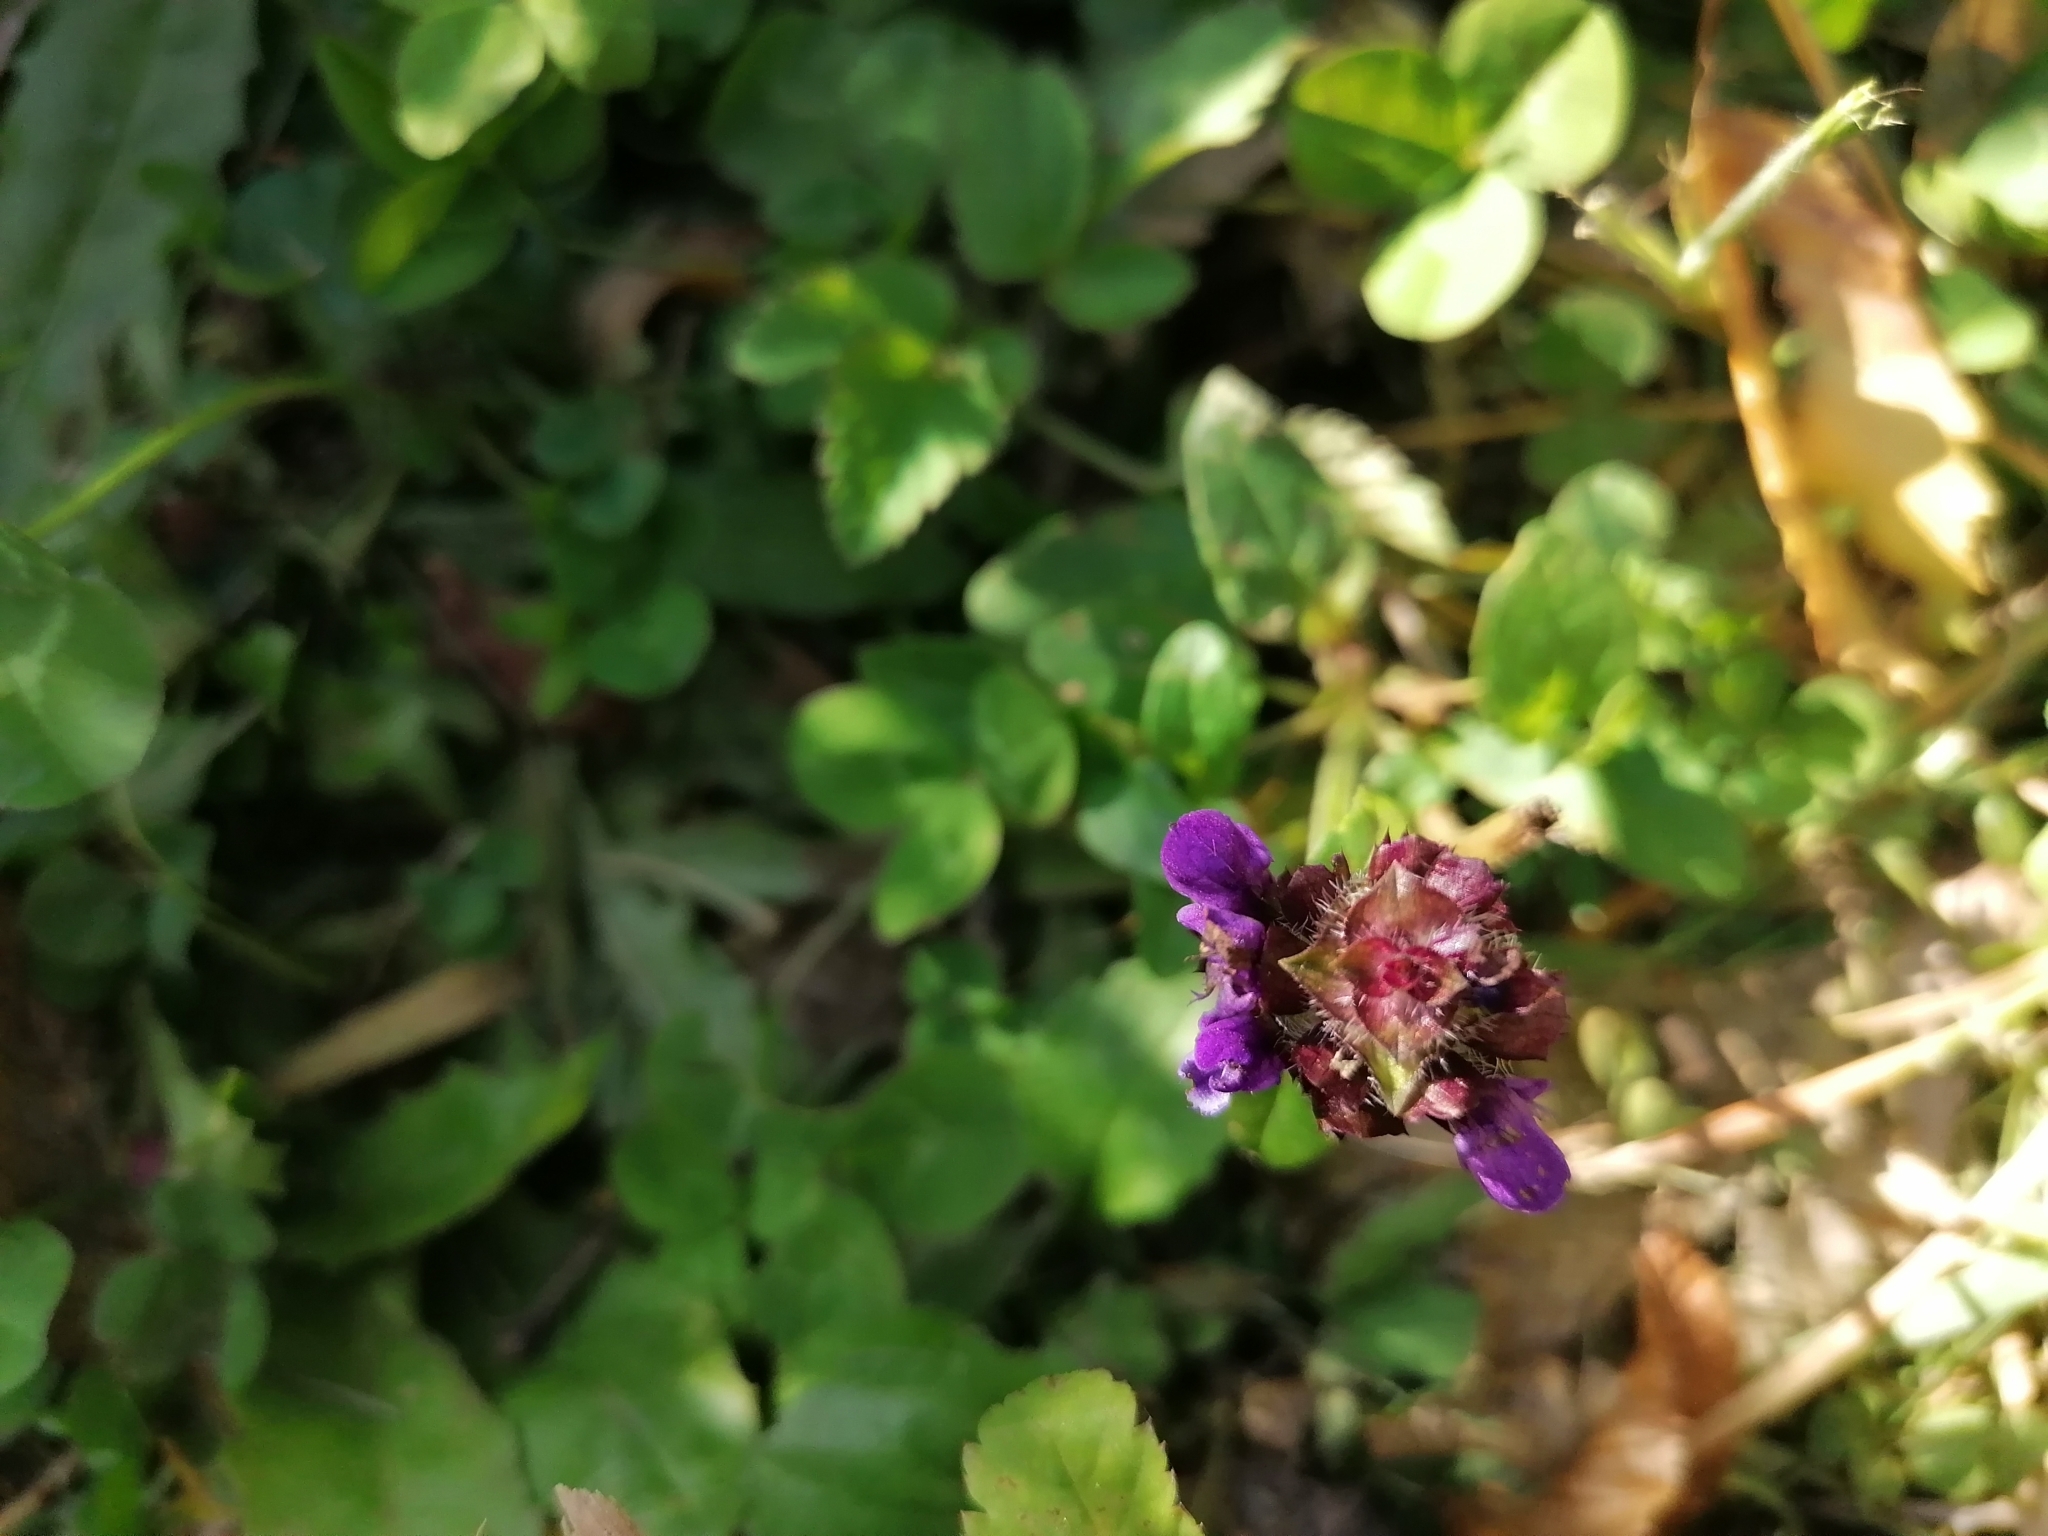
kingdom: Plantae
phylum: Tracheophyta
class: Magnoliopsida
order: Lamiales
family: Lamiaceae
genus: Prunella
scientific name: Prunella vulgaris
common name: Heal-all
